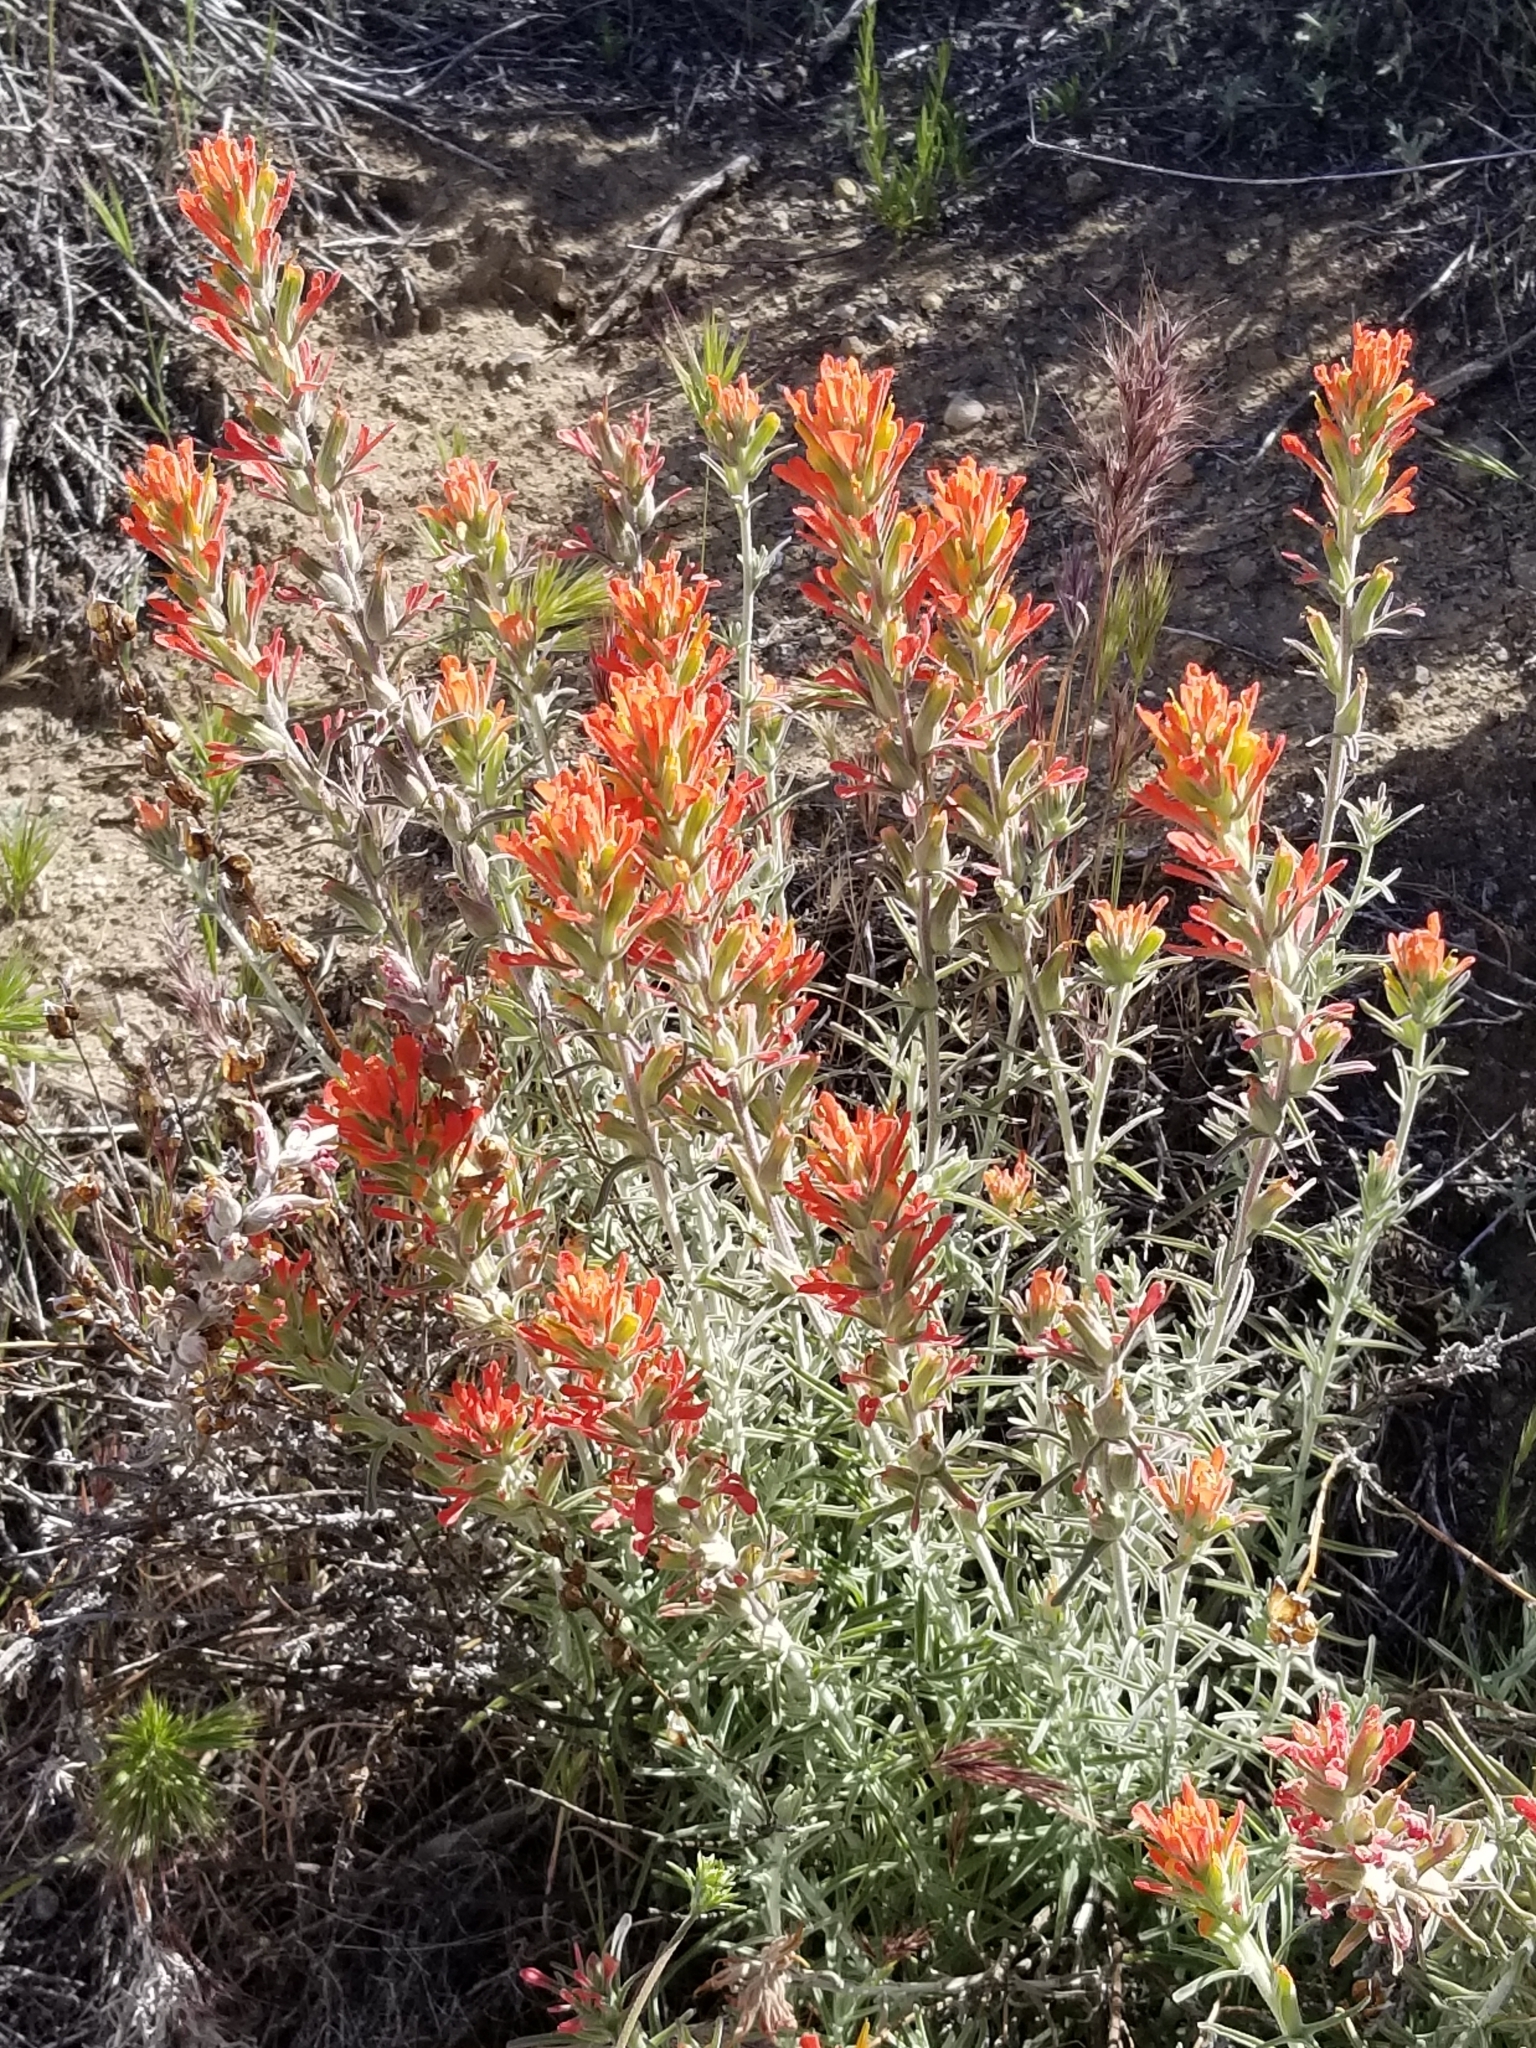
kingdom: Plantae
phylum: Tracheophyta
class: Magnoliopsida
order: Lamiales
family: Orobanchaceae
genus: Castilleja
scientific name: Castilleja foliolosa
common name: Woolly indian paintbrush
